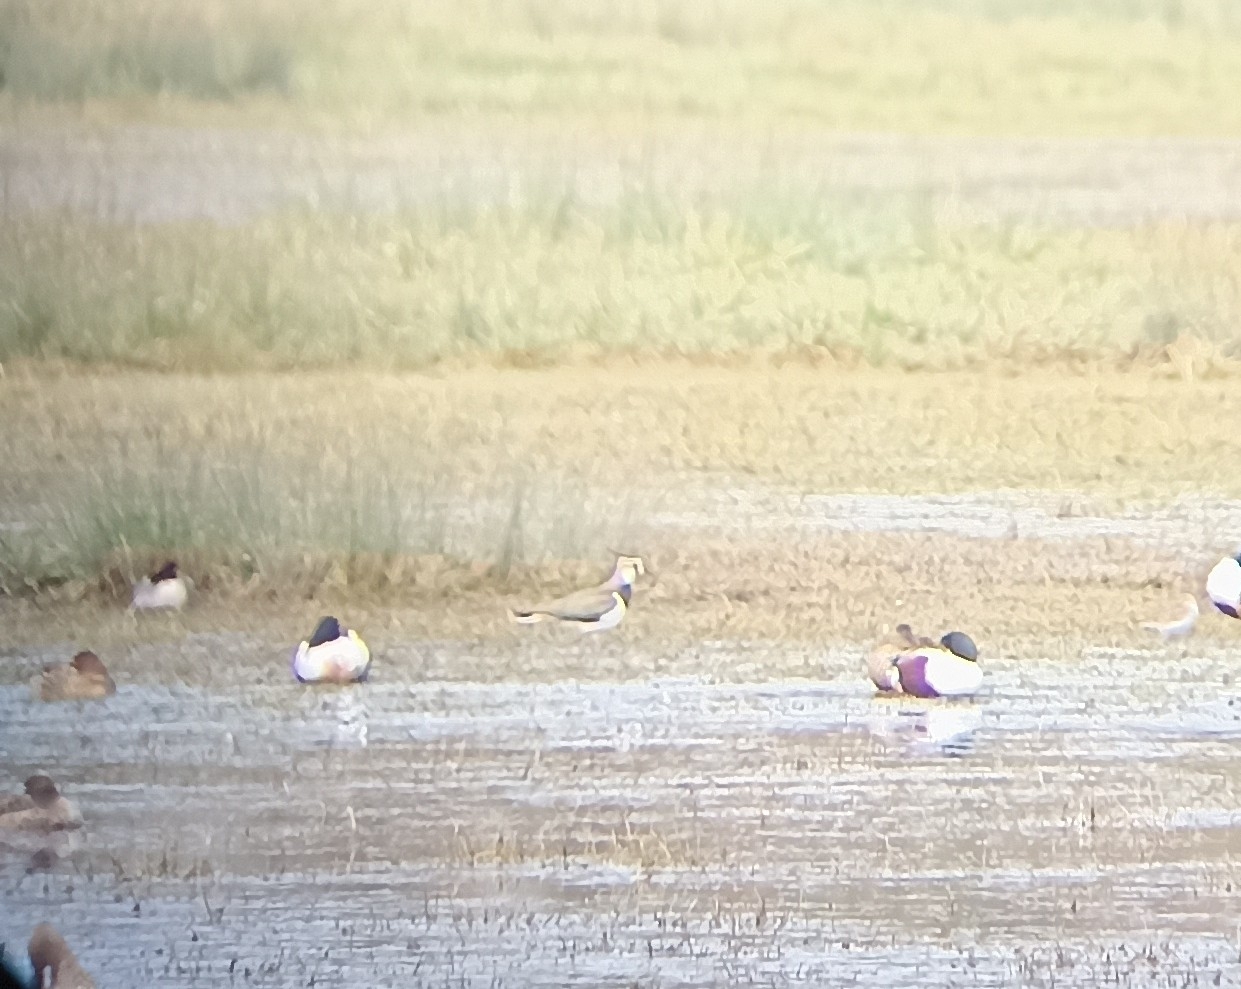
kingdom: Animalia
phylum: Chordata
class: Aves
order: Charadriiformes
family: Charadriidae
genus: Vanellus
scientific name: Vanellus vanellus
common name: Northern lapwing
